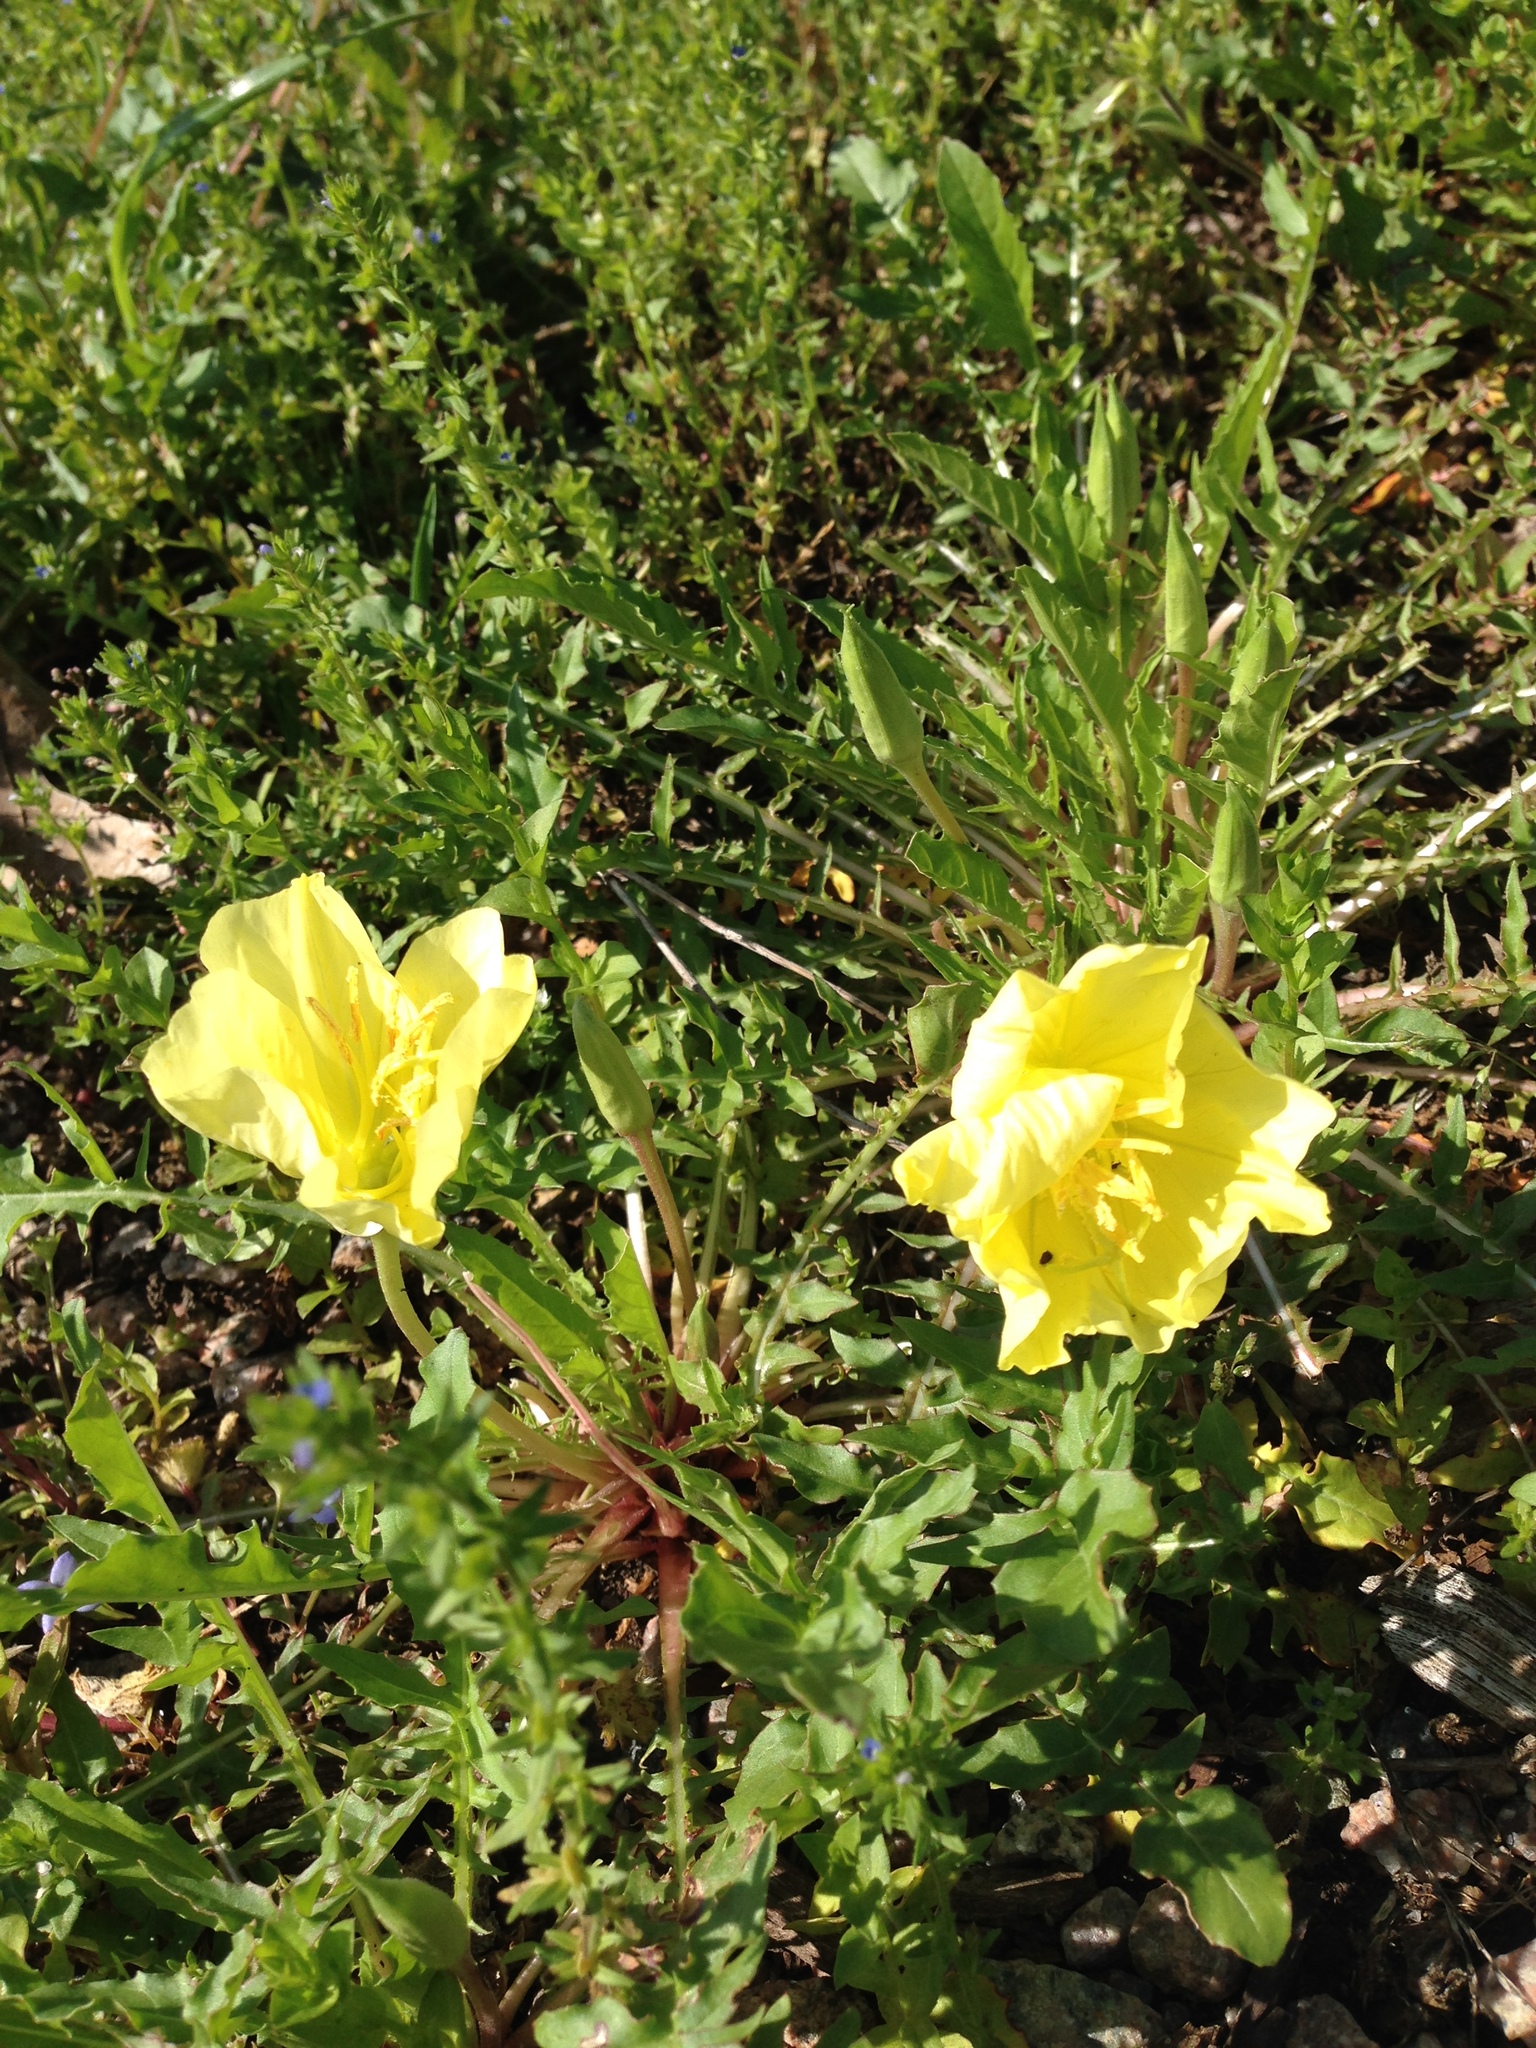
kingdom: Plantae
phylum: Tracheophyta
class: Magnoliopsida
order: Myrtales
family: Onagraceae
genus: Oenothera
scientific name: Oenothera triloba
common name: Sessile evening-primrose
